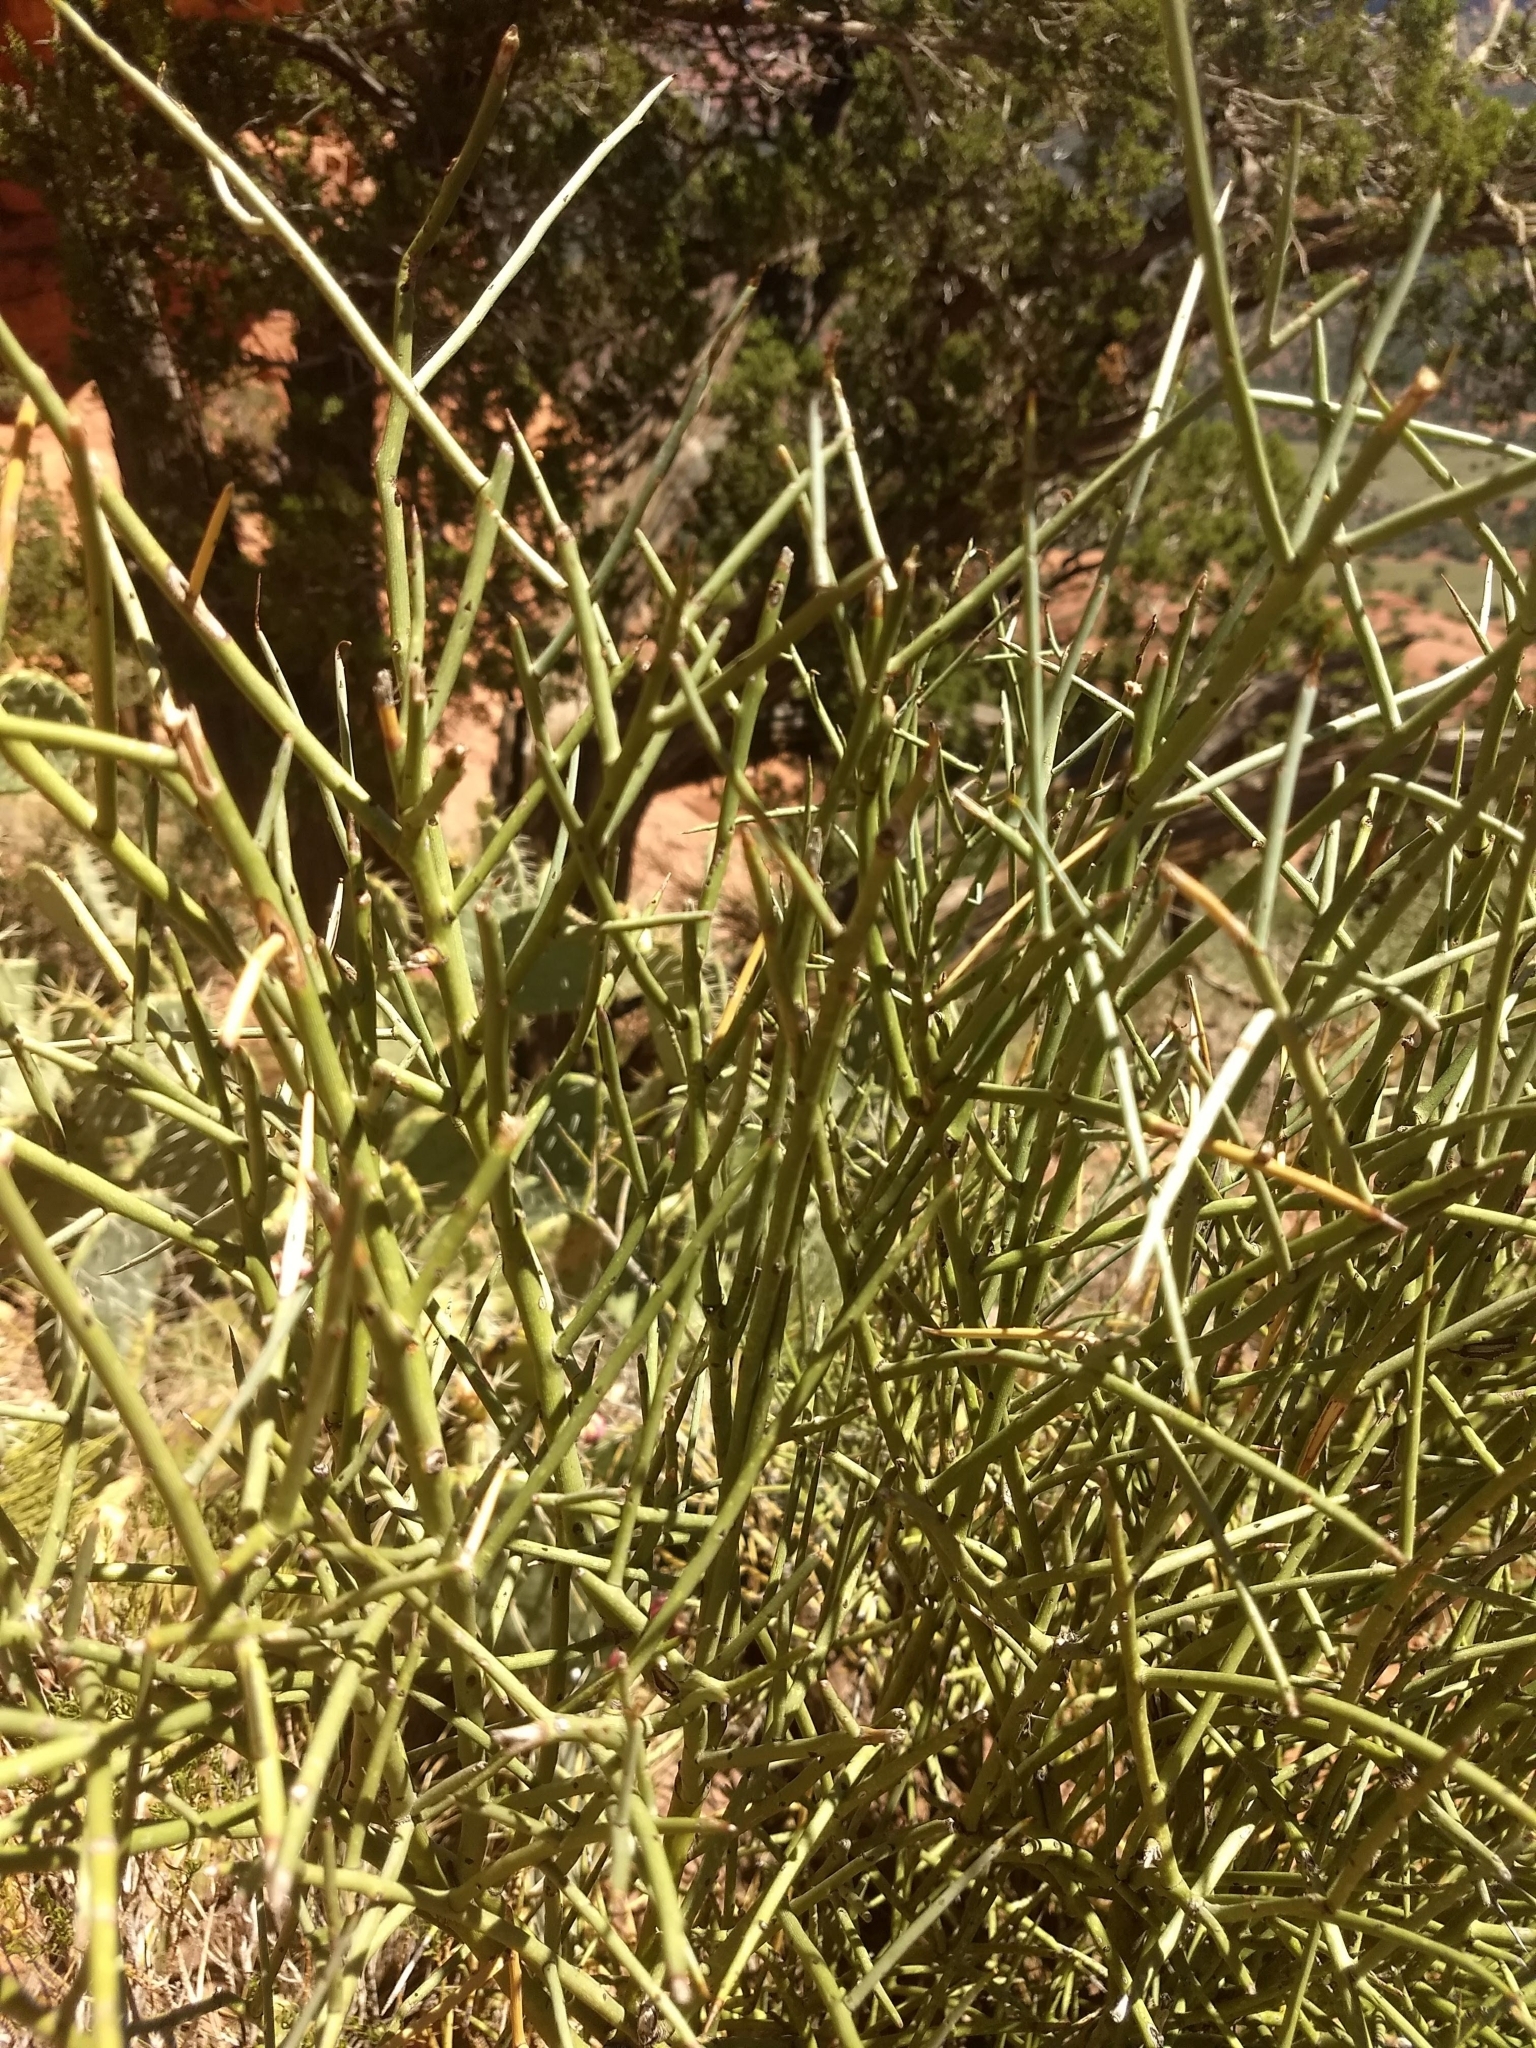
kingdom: Plantae
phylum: Tracheophyta
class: Magnoliopsida
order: Celastrales
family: Celastraceae
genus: Canotia
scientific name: Canotia holacantha
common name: Crucifixion thorns
